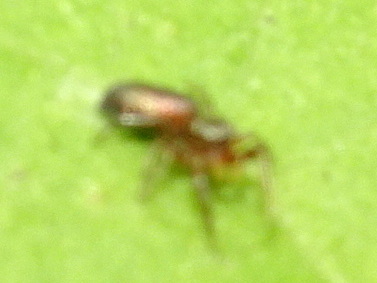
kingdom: Animalia
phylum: Arthropoda
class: Arachnida
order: Araneae
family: Salticidae
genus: Tutelina
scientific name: Tutelina elegans
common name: Thin-spined jumping spider
